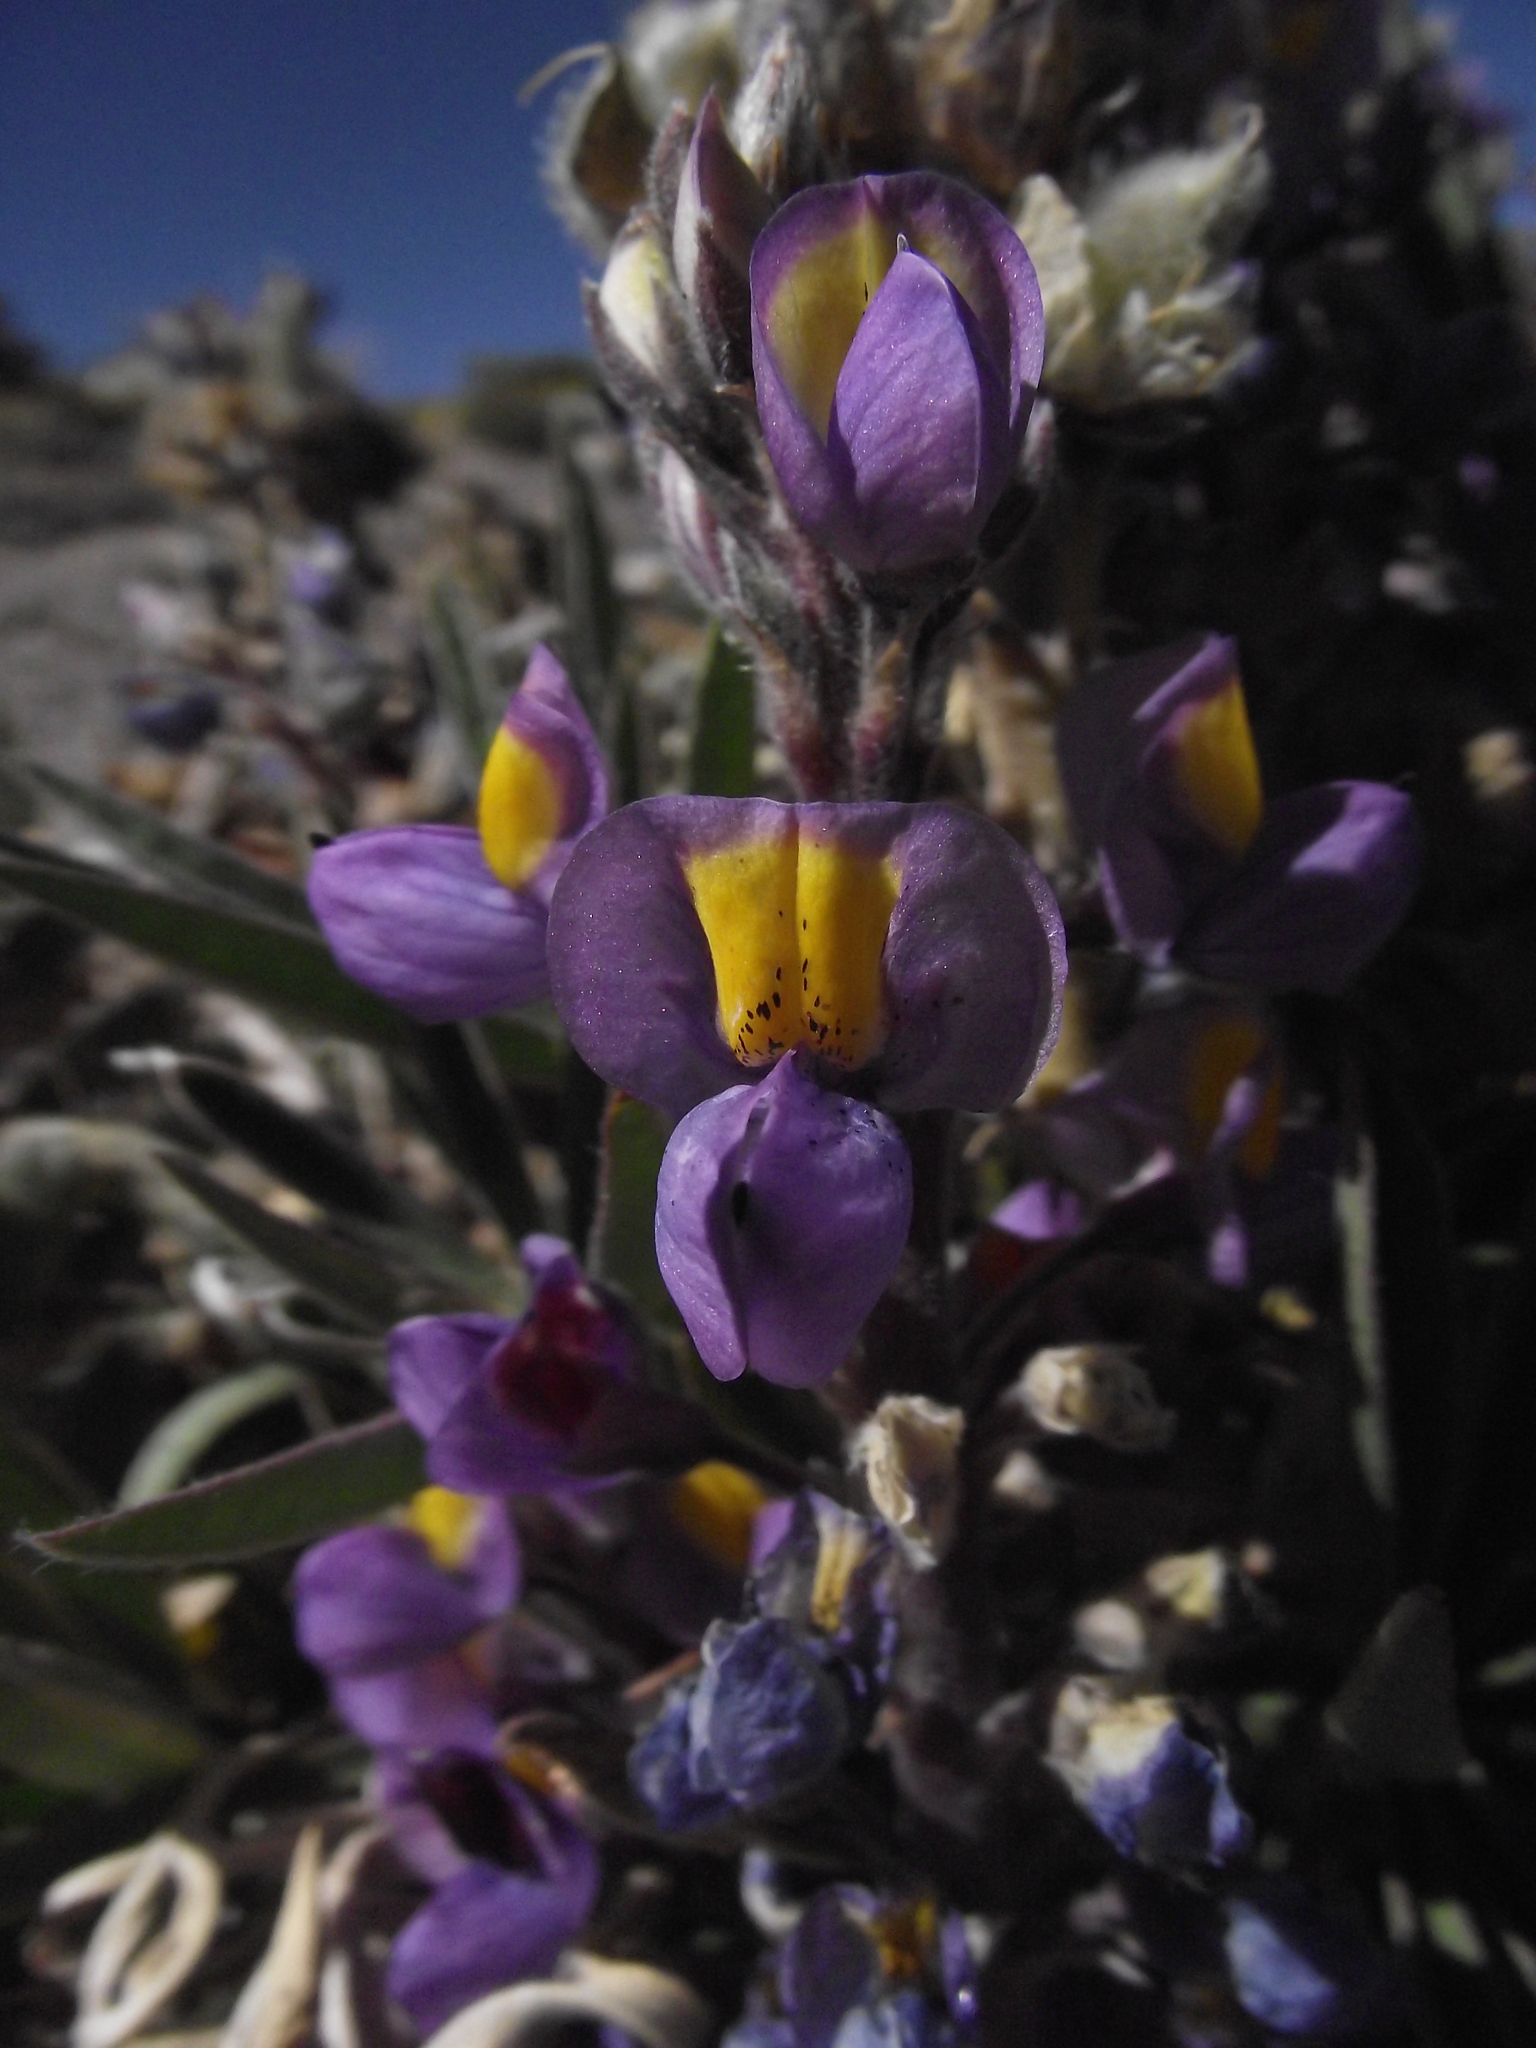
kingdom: Plantae
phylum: Tracheophyta
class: Magnoliopsida
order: Fabales
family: Fabaceae
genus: Lupinus
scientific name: Lupinus tarapacensis
